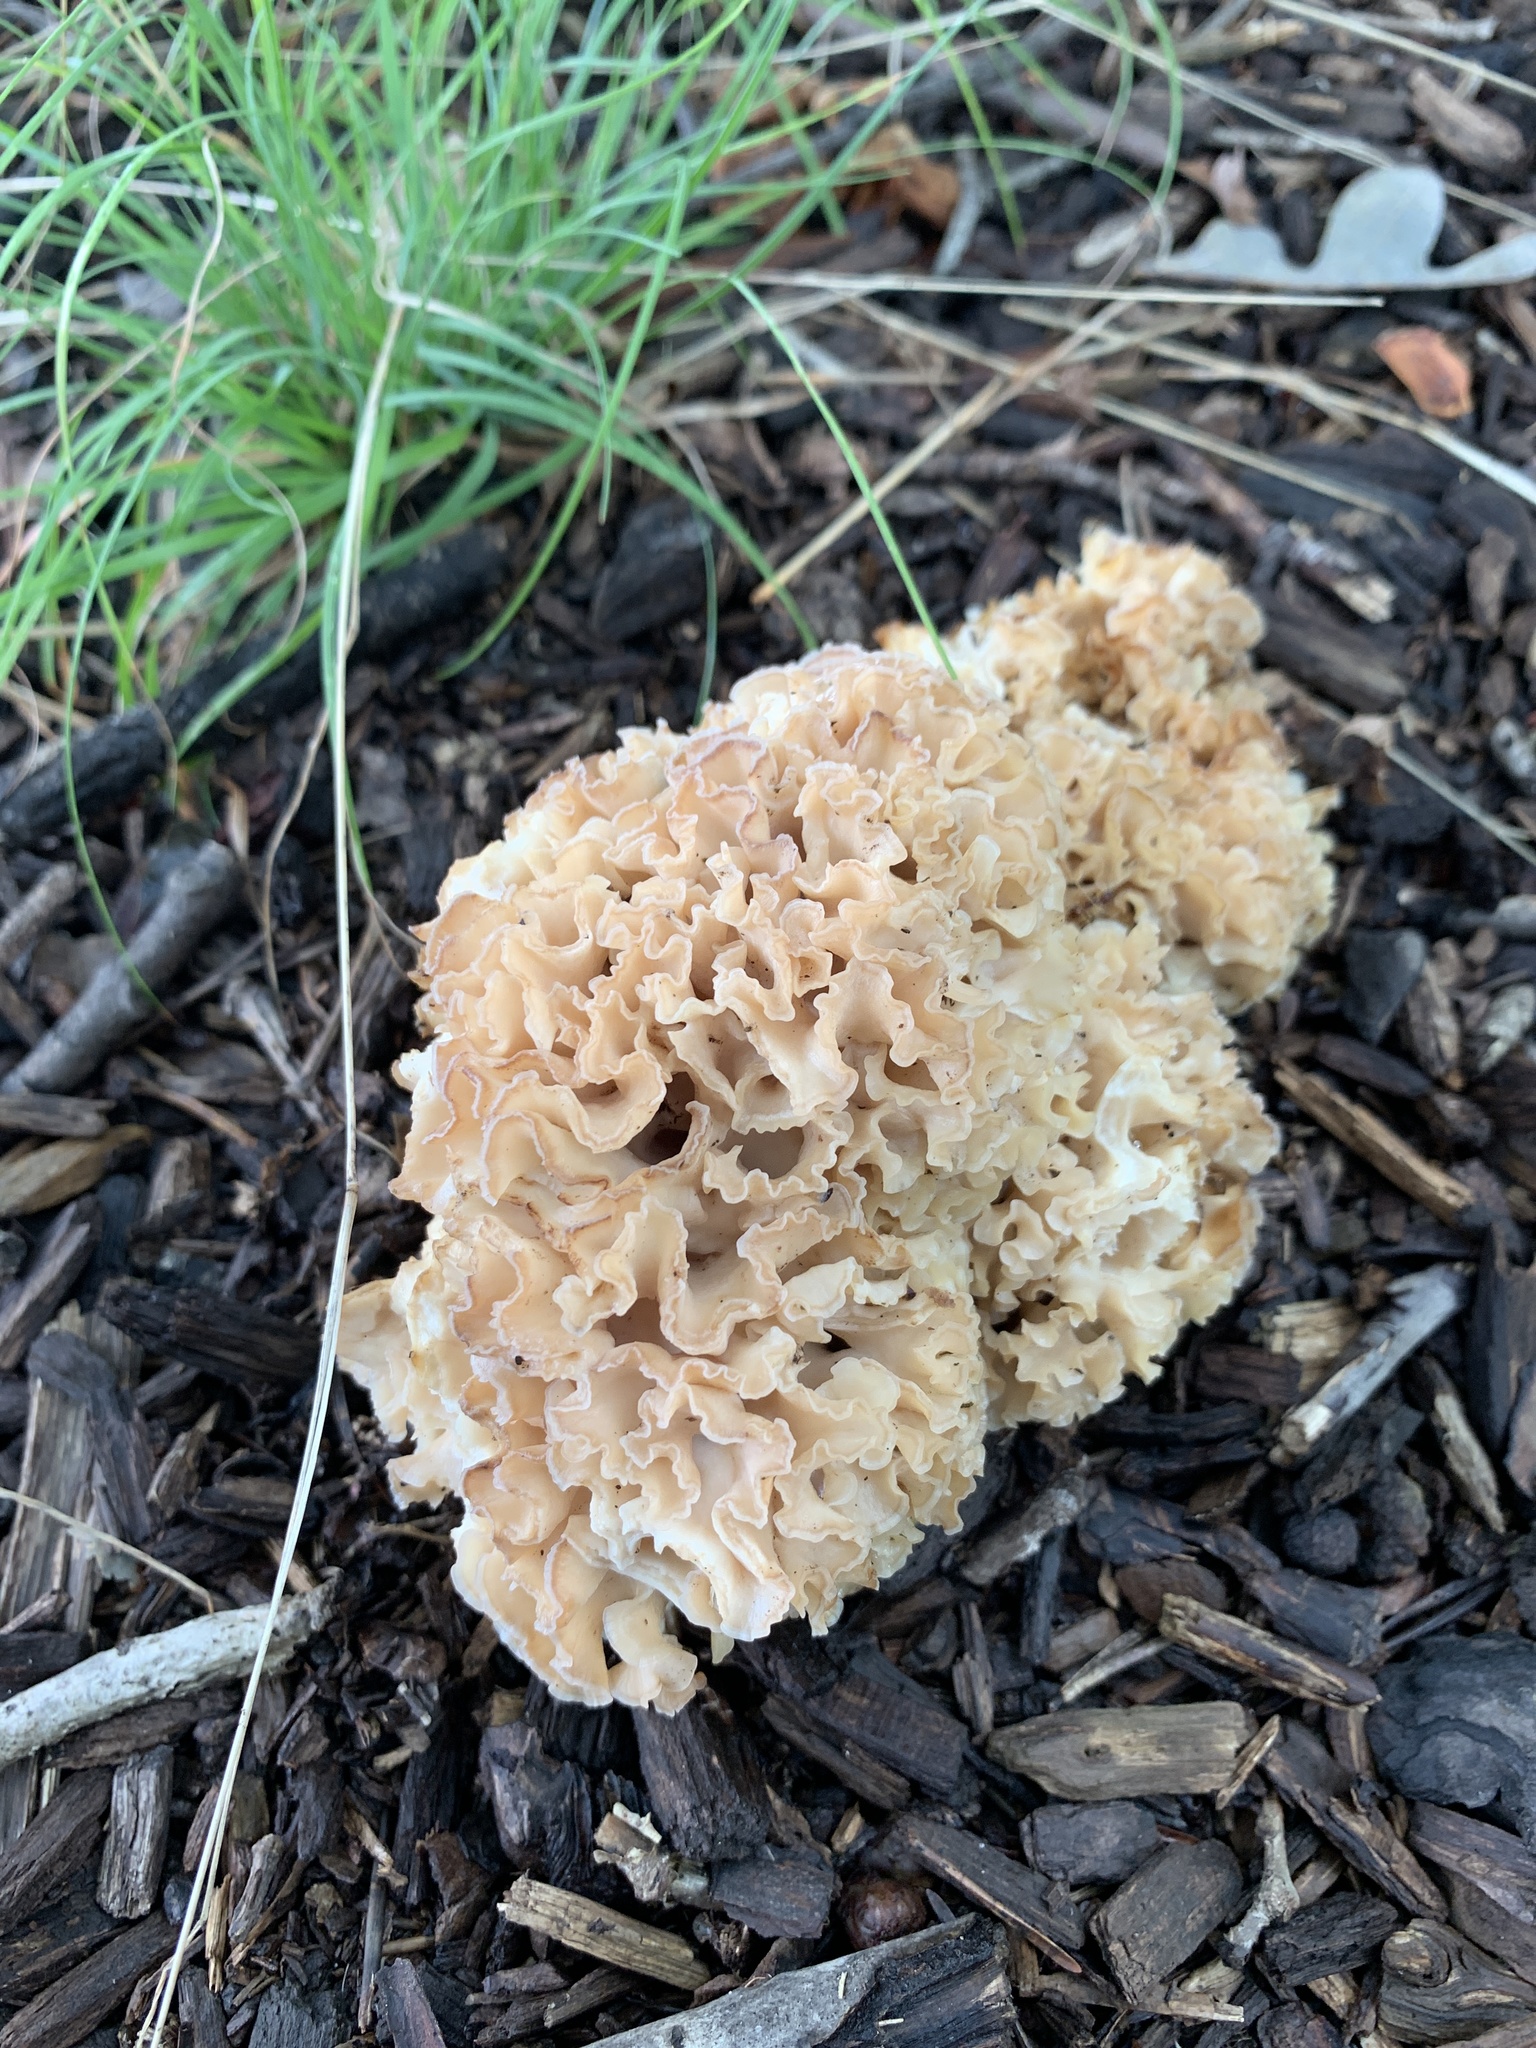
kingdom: Fungi
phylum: Basidiomycota
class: Agaricomycetes
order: Polyporales
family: Sparassidaceae
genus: Sparassis
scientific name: Sparassis americana
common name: American cauliflower mushroom
